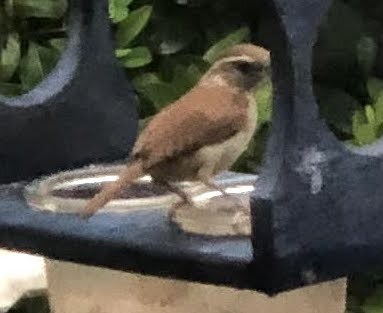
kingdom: Animalia
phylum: Chordata
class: Aves
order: Passeriformes
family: Troglodytidae
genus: Thryothorus
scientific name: Thryothorus ludovicianus
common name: Carolina wren
